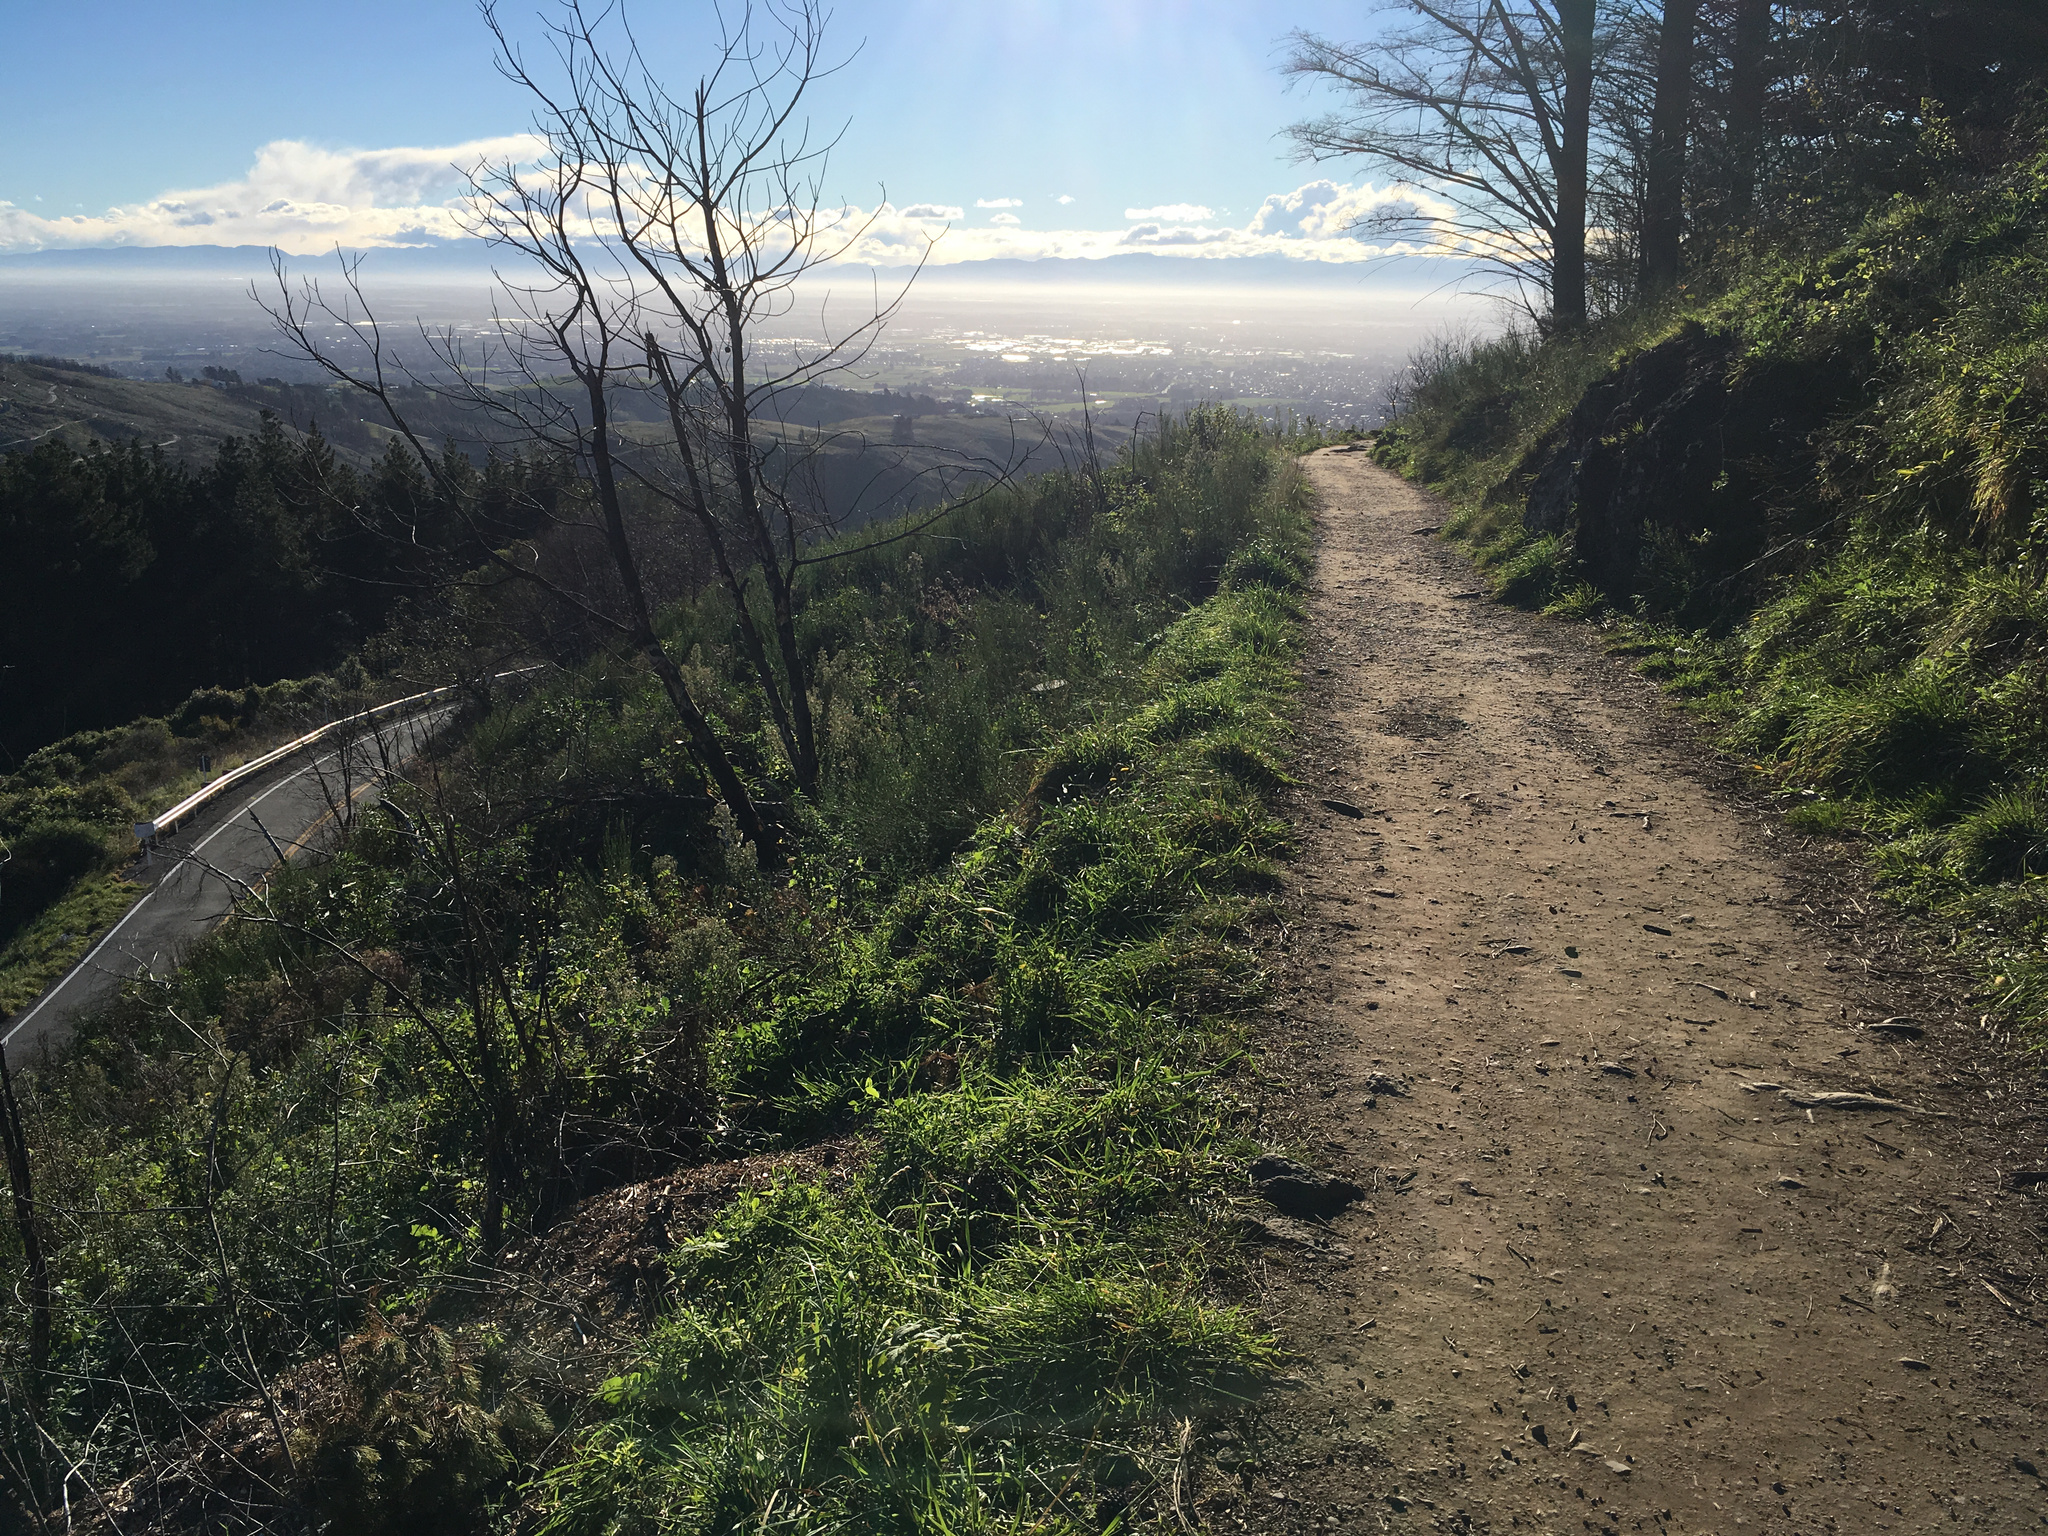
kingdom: Plantae
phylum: Tracheophyta
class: Magnoliopsida
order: Fabales
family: Fabaceae
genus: Cytisus
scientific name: Cytisus scoparius
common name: Scotch broom
